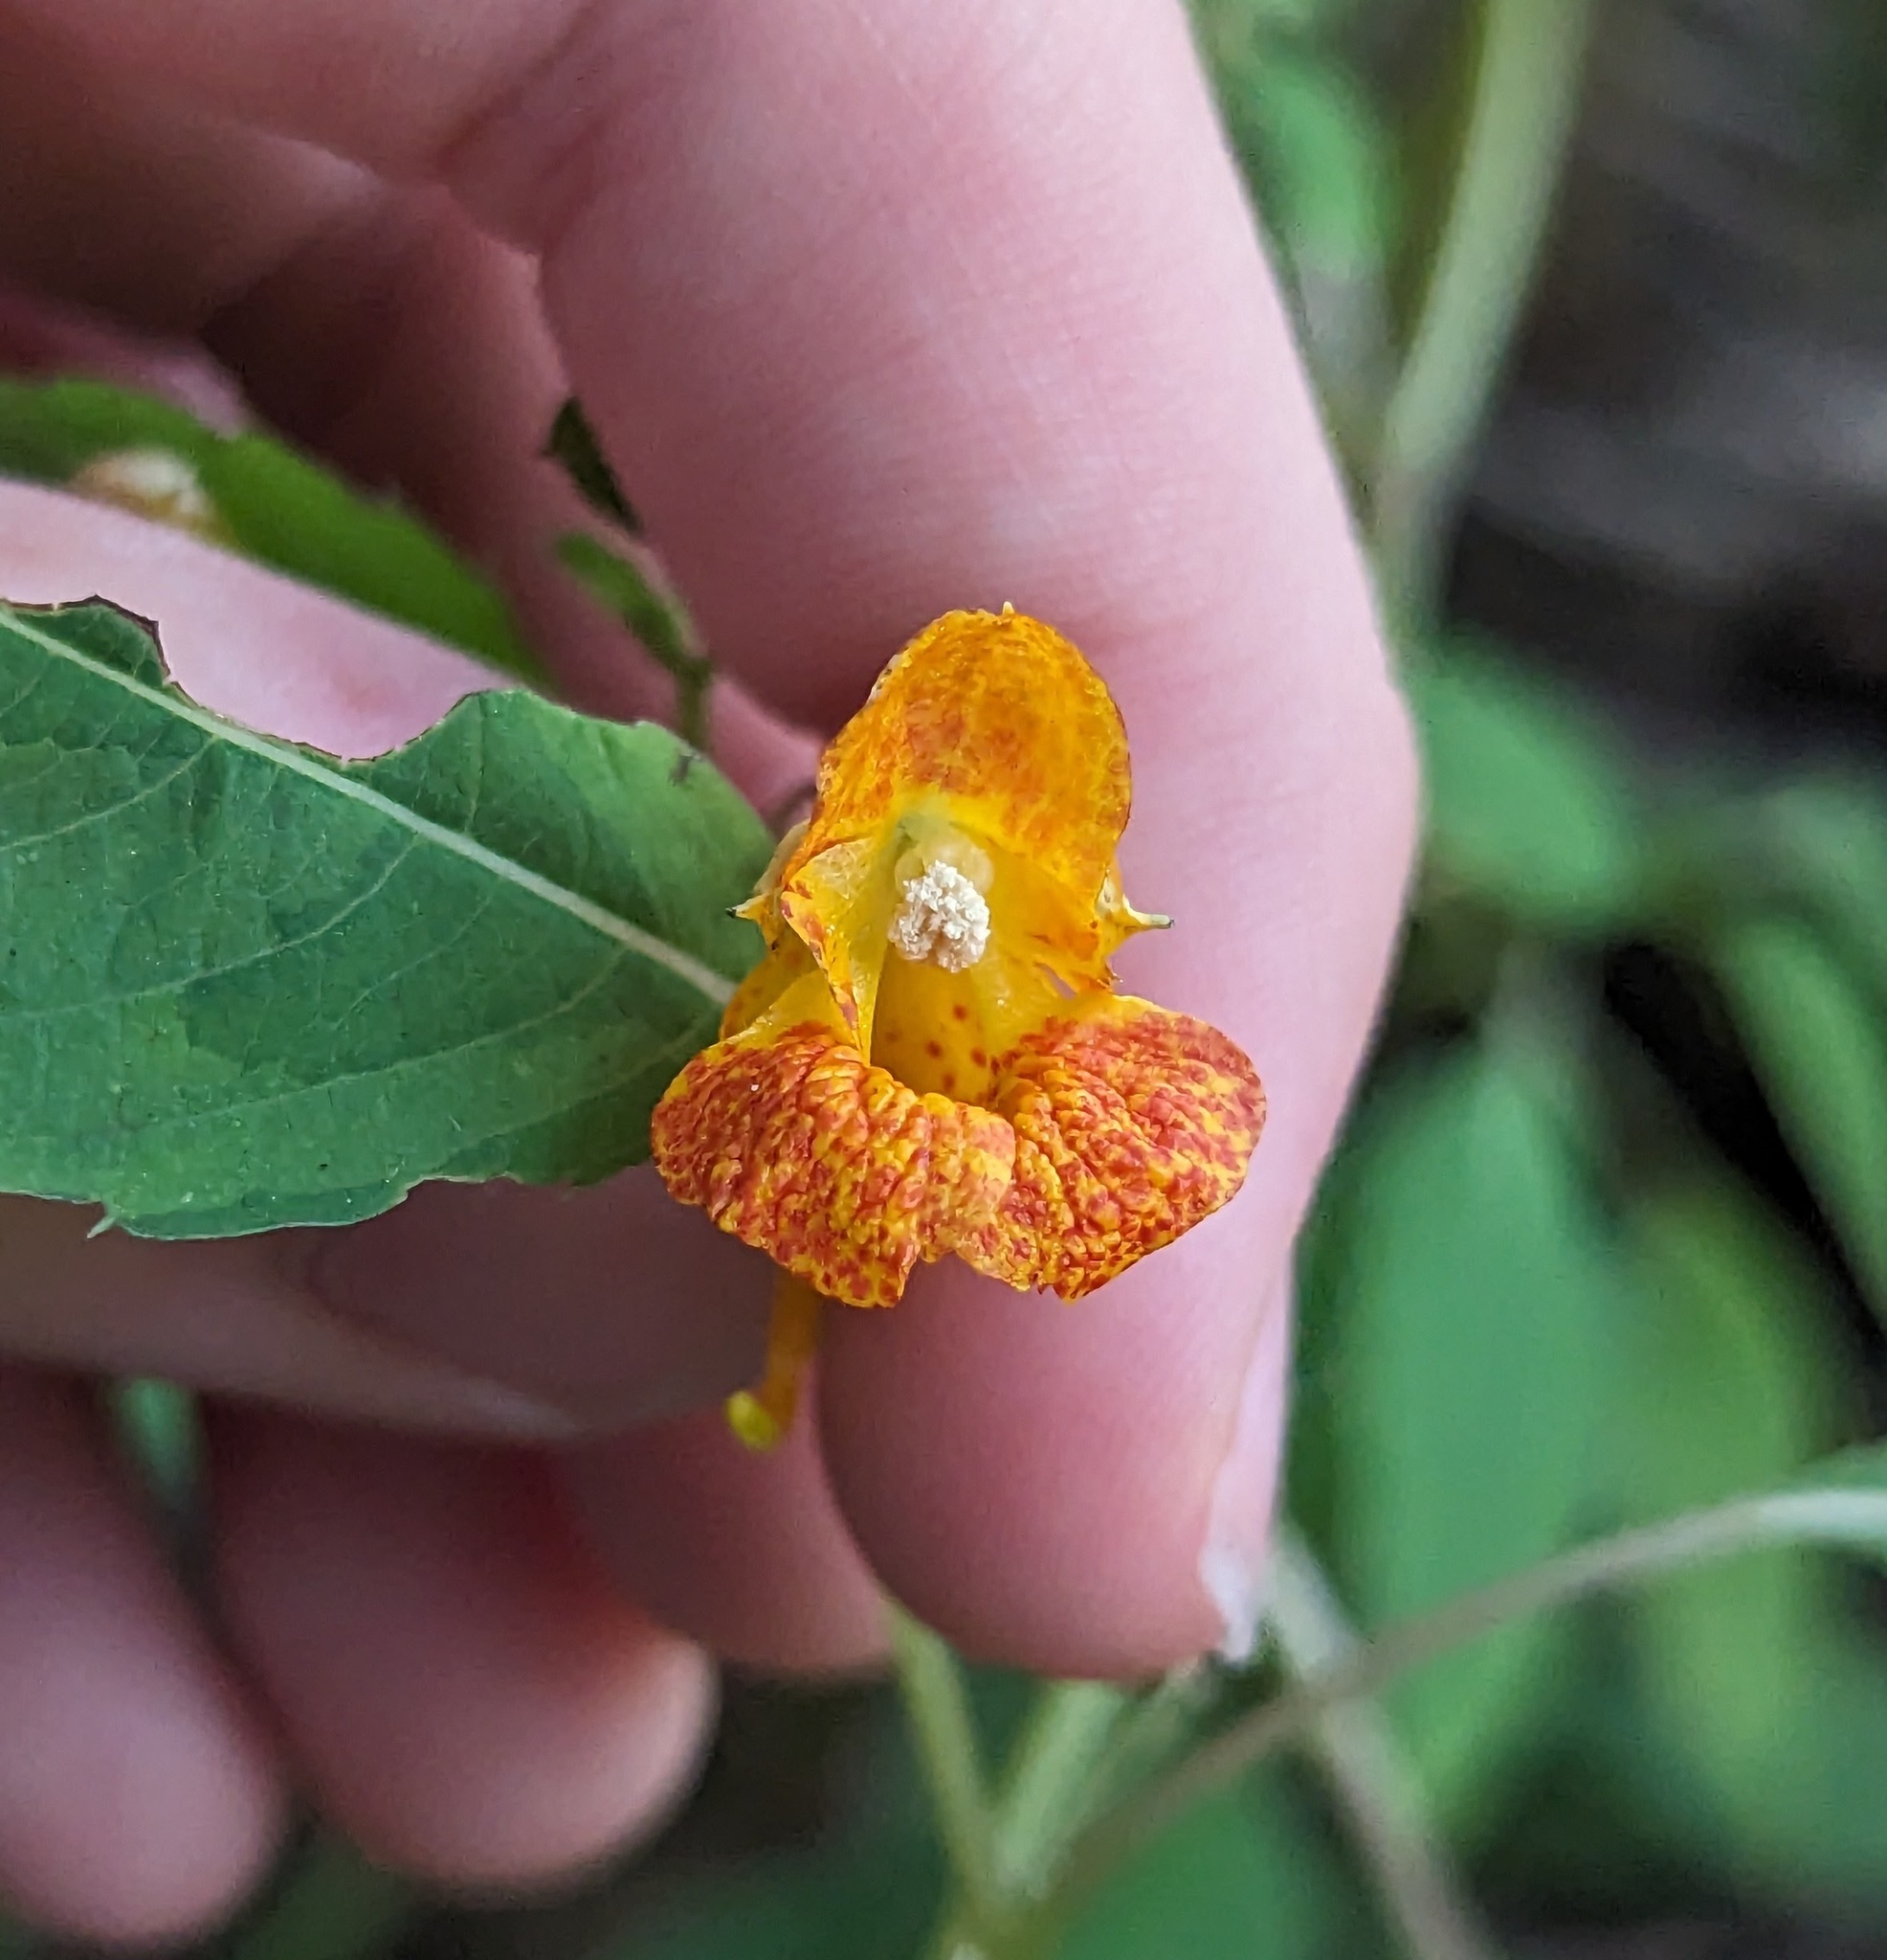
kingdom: Plantae
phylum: Tracheophyta
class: Magnoliopsida
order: Ericales
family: Balsaminaceae
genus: Impatiens
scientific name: Impatiens capensis
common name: Orange balsam
